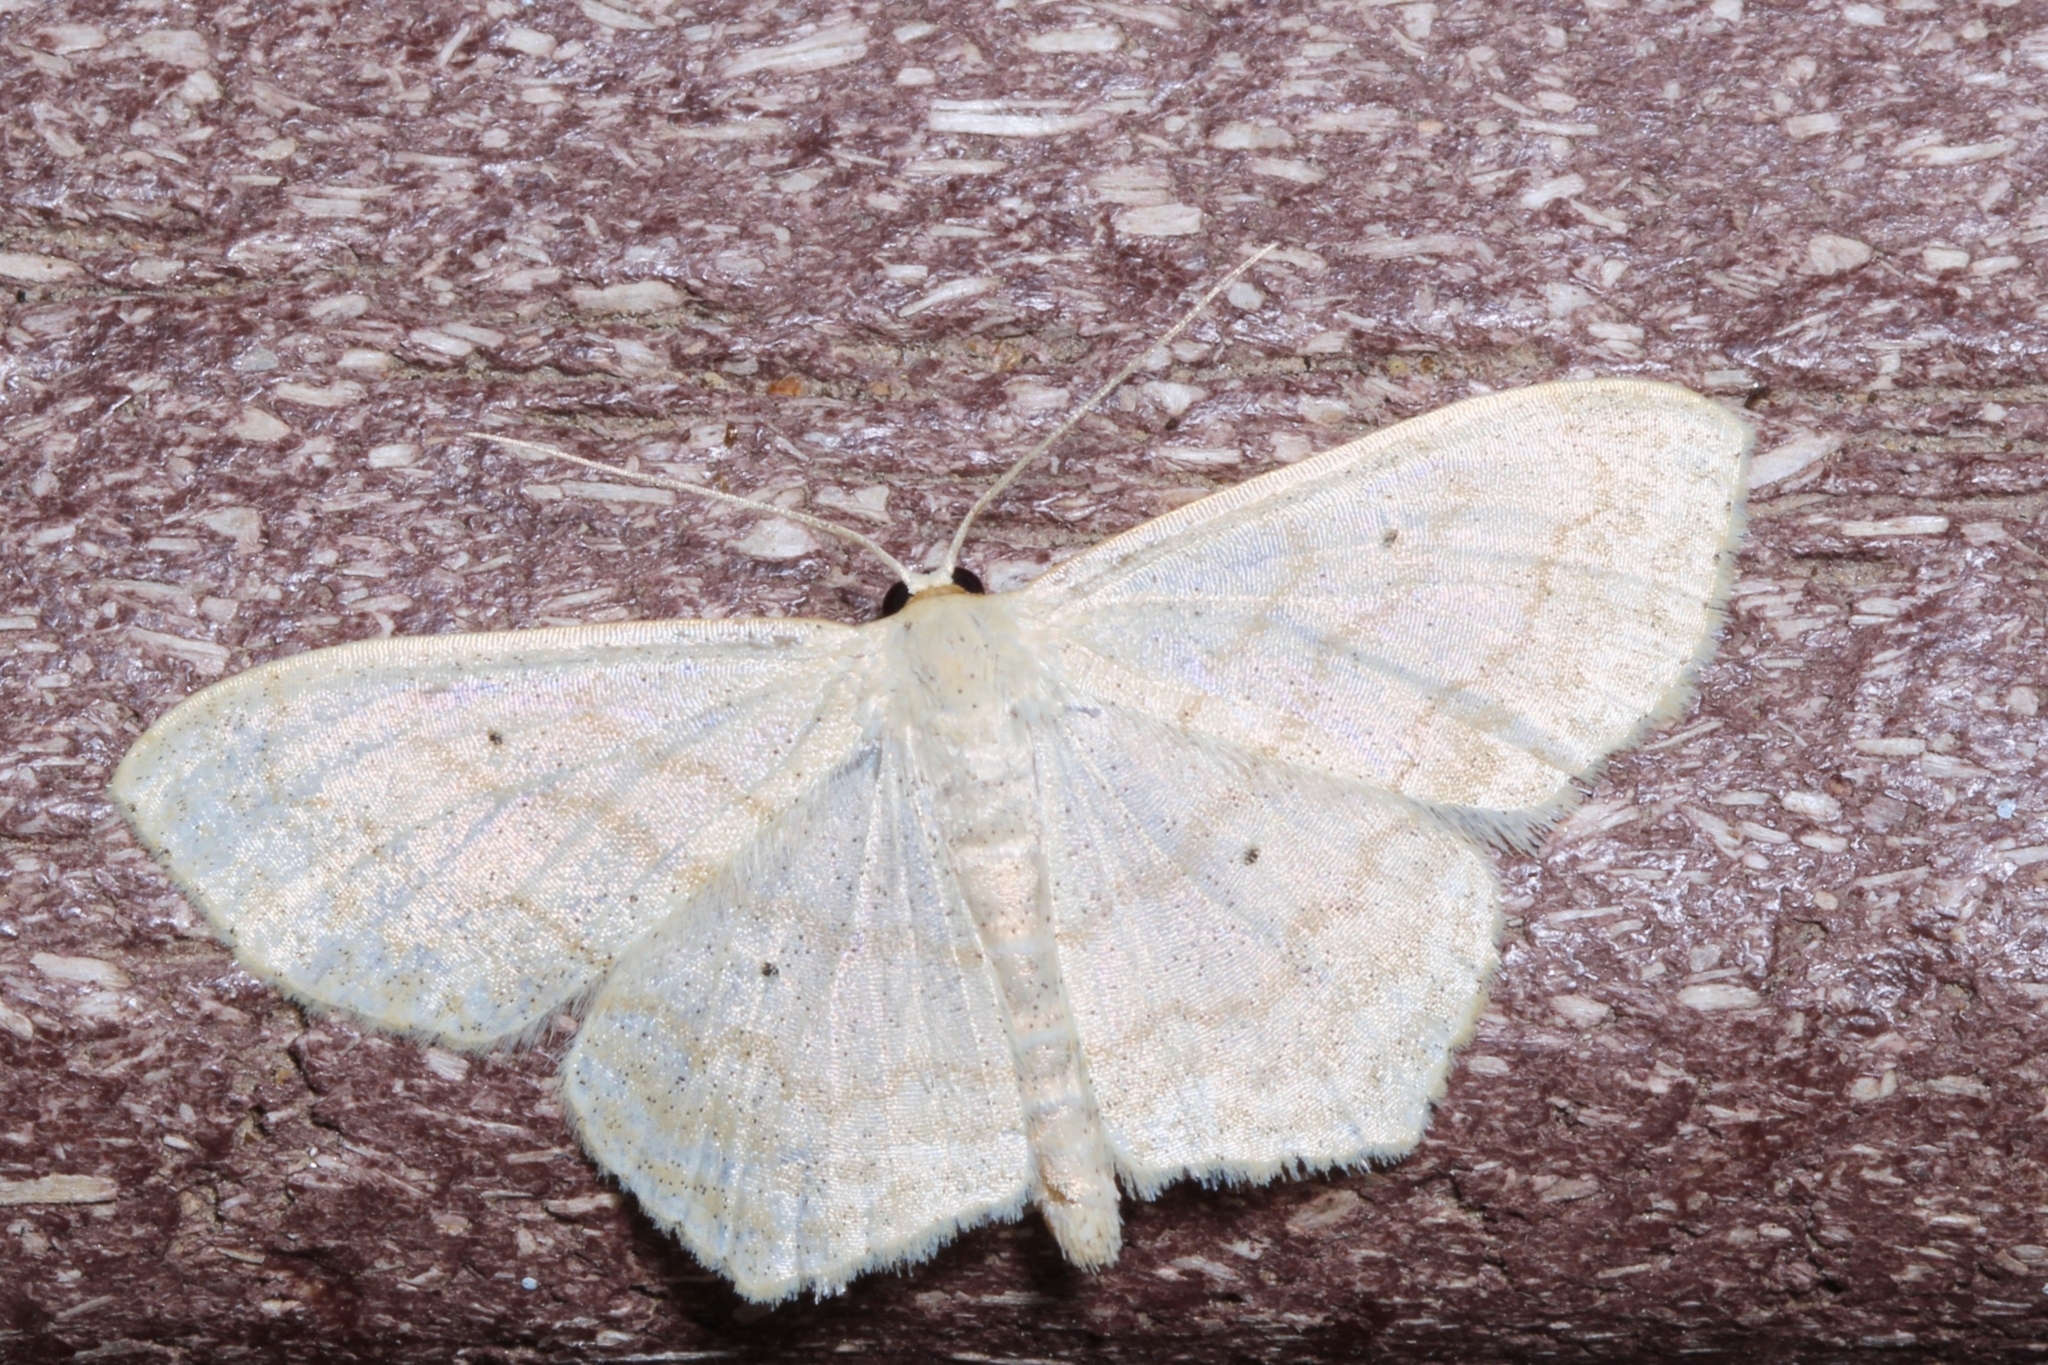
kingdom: Animalia
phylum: Arthropoda
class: Insecta
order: Lepidoptera
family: Geometridae
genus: Scopula
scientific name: Scopula limboundata
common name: Large lace border
